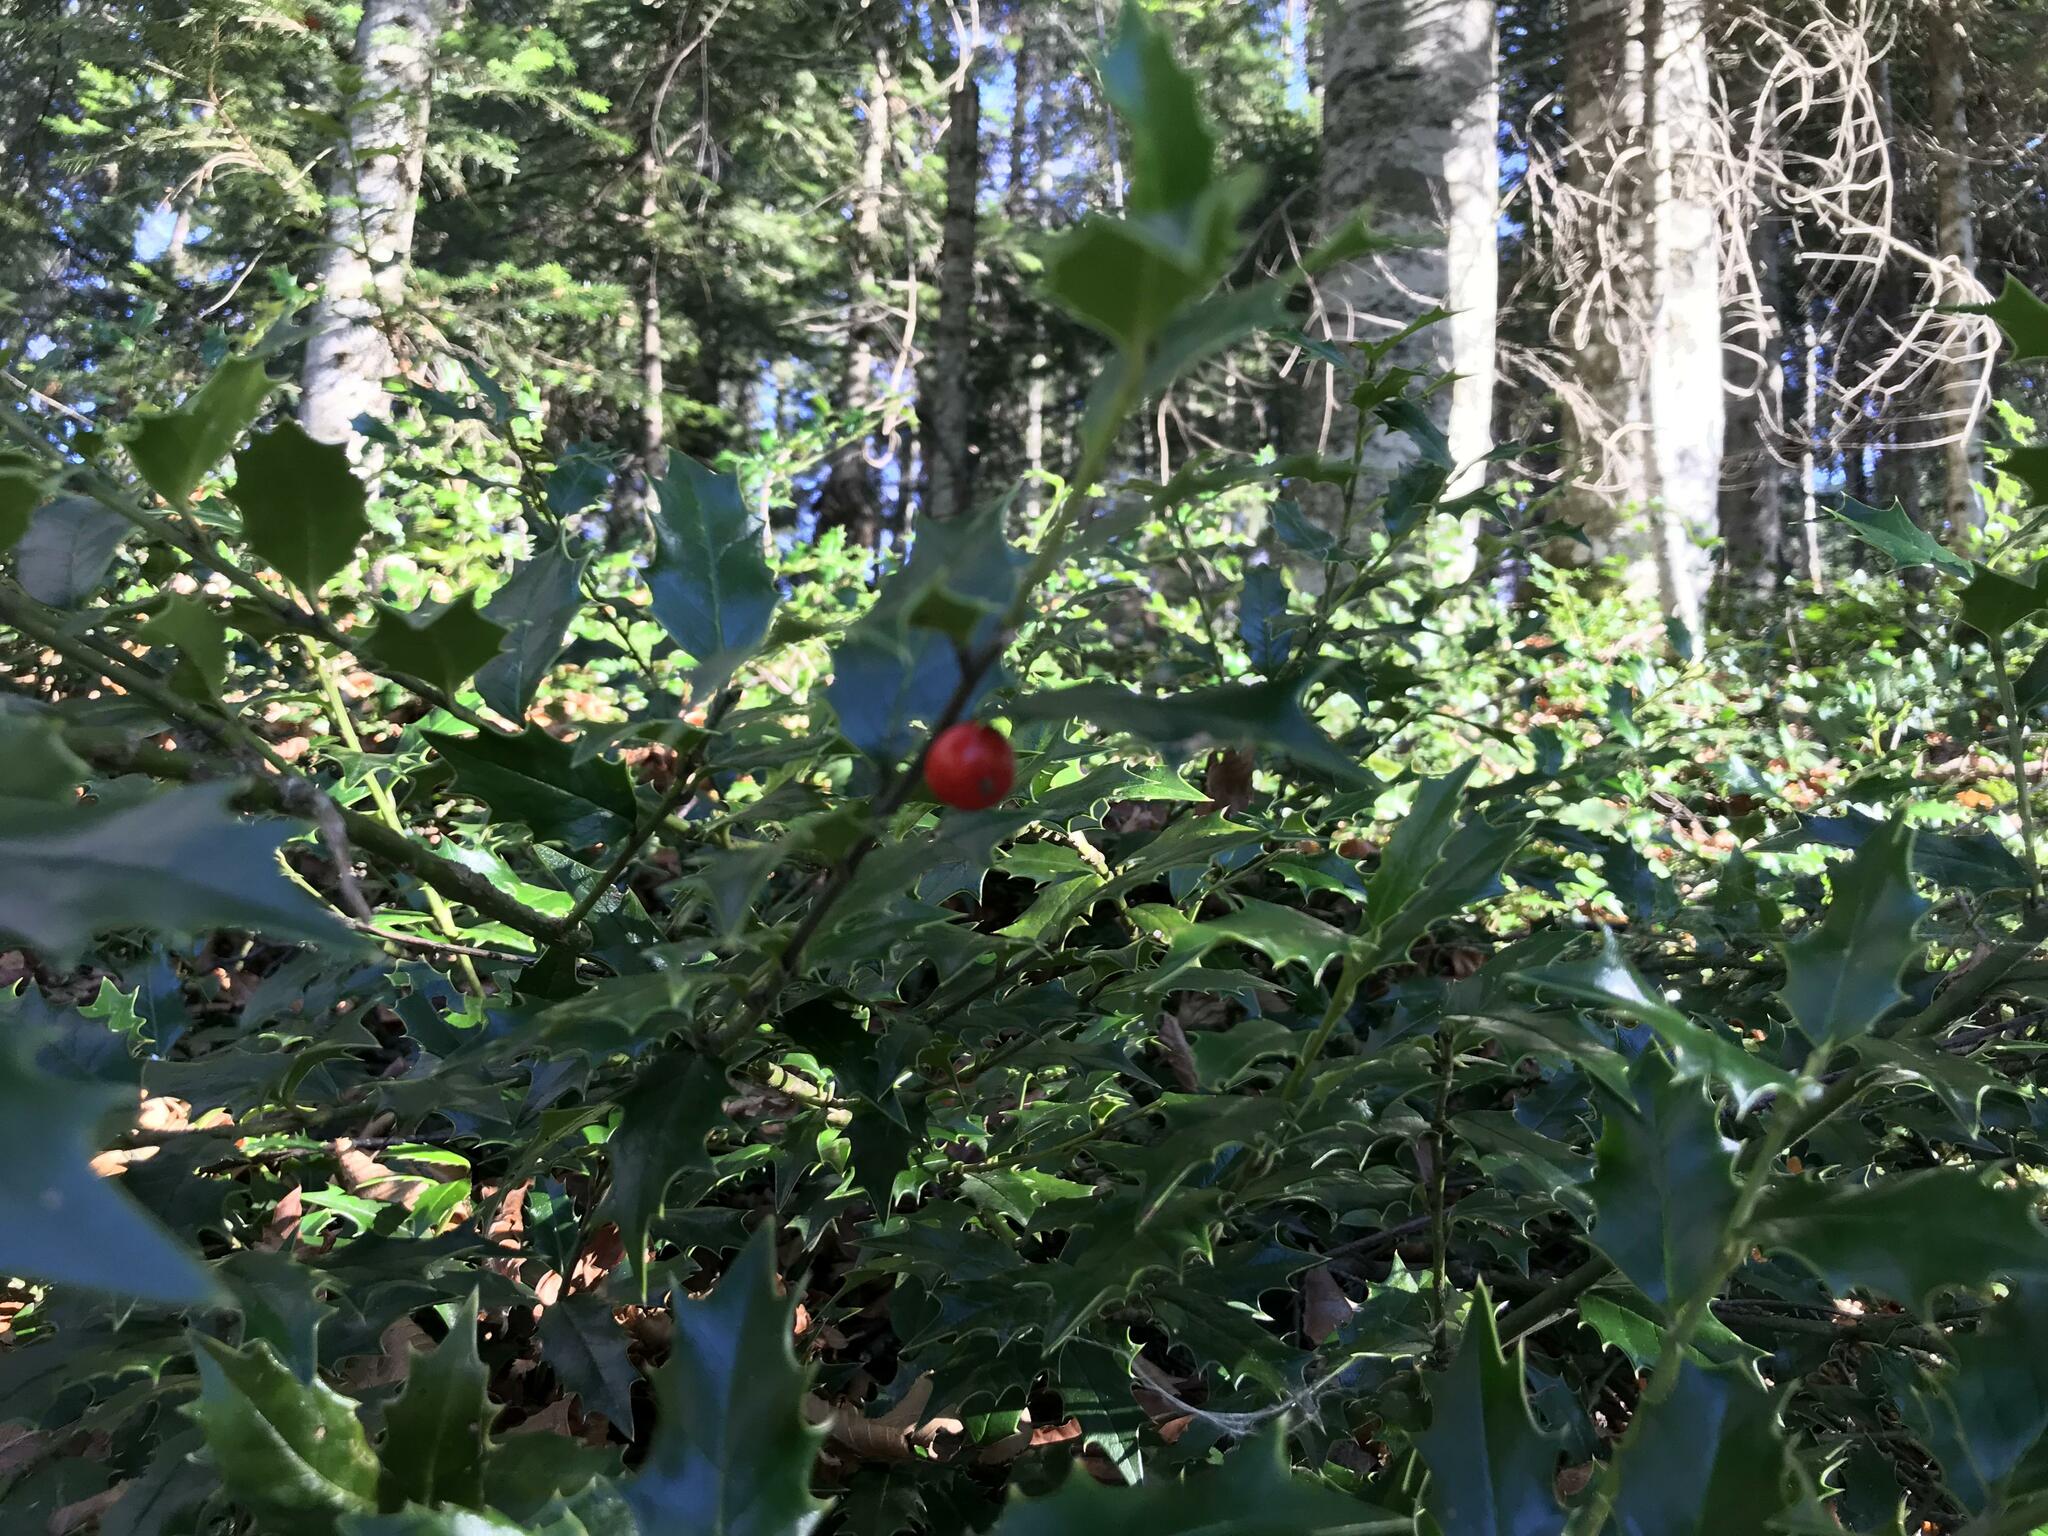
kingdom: Plantae
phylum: Tracheophyta
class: Magnoliopsida
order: Aquifoliales
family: Aquifoliaceae
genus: Ilex
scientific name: Ilex colchica
